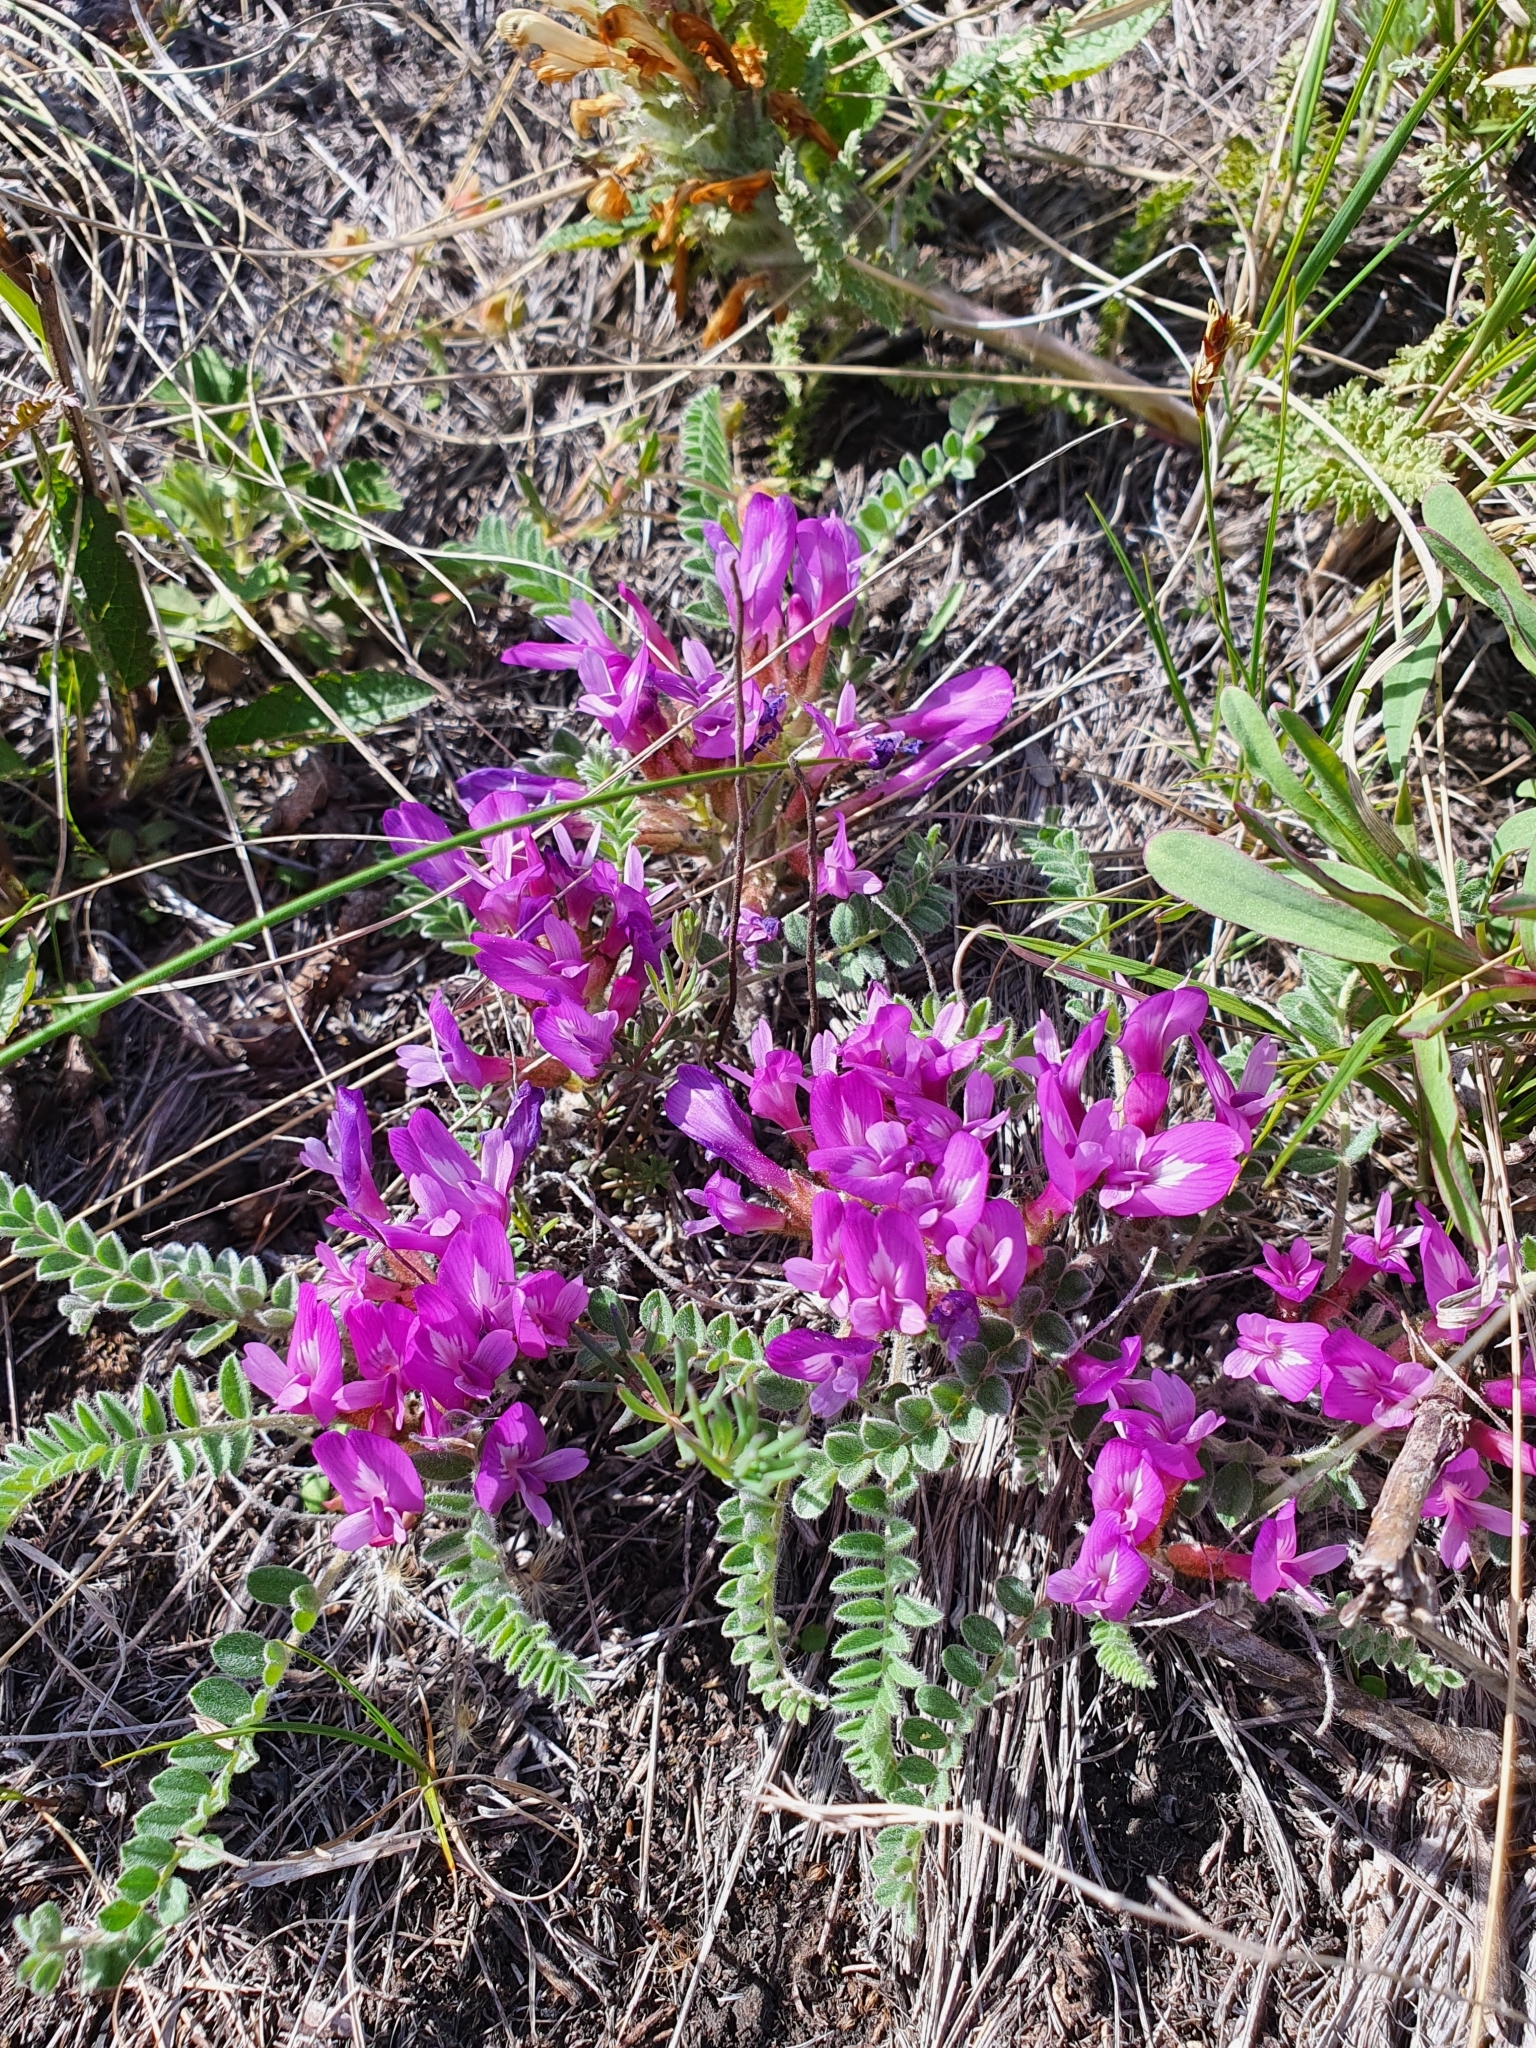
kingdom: Plantae
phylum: Tracheophyta
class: Magnoliopsida
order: Fabales
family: Fabaceae
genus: Astragalus
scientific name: Astragalus testiculatus
